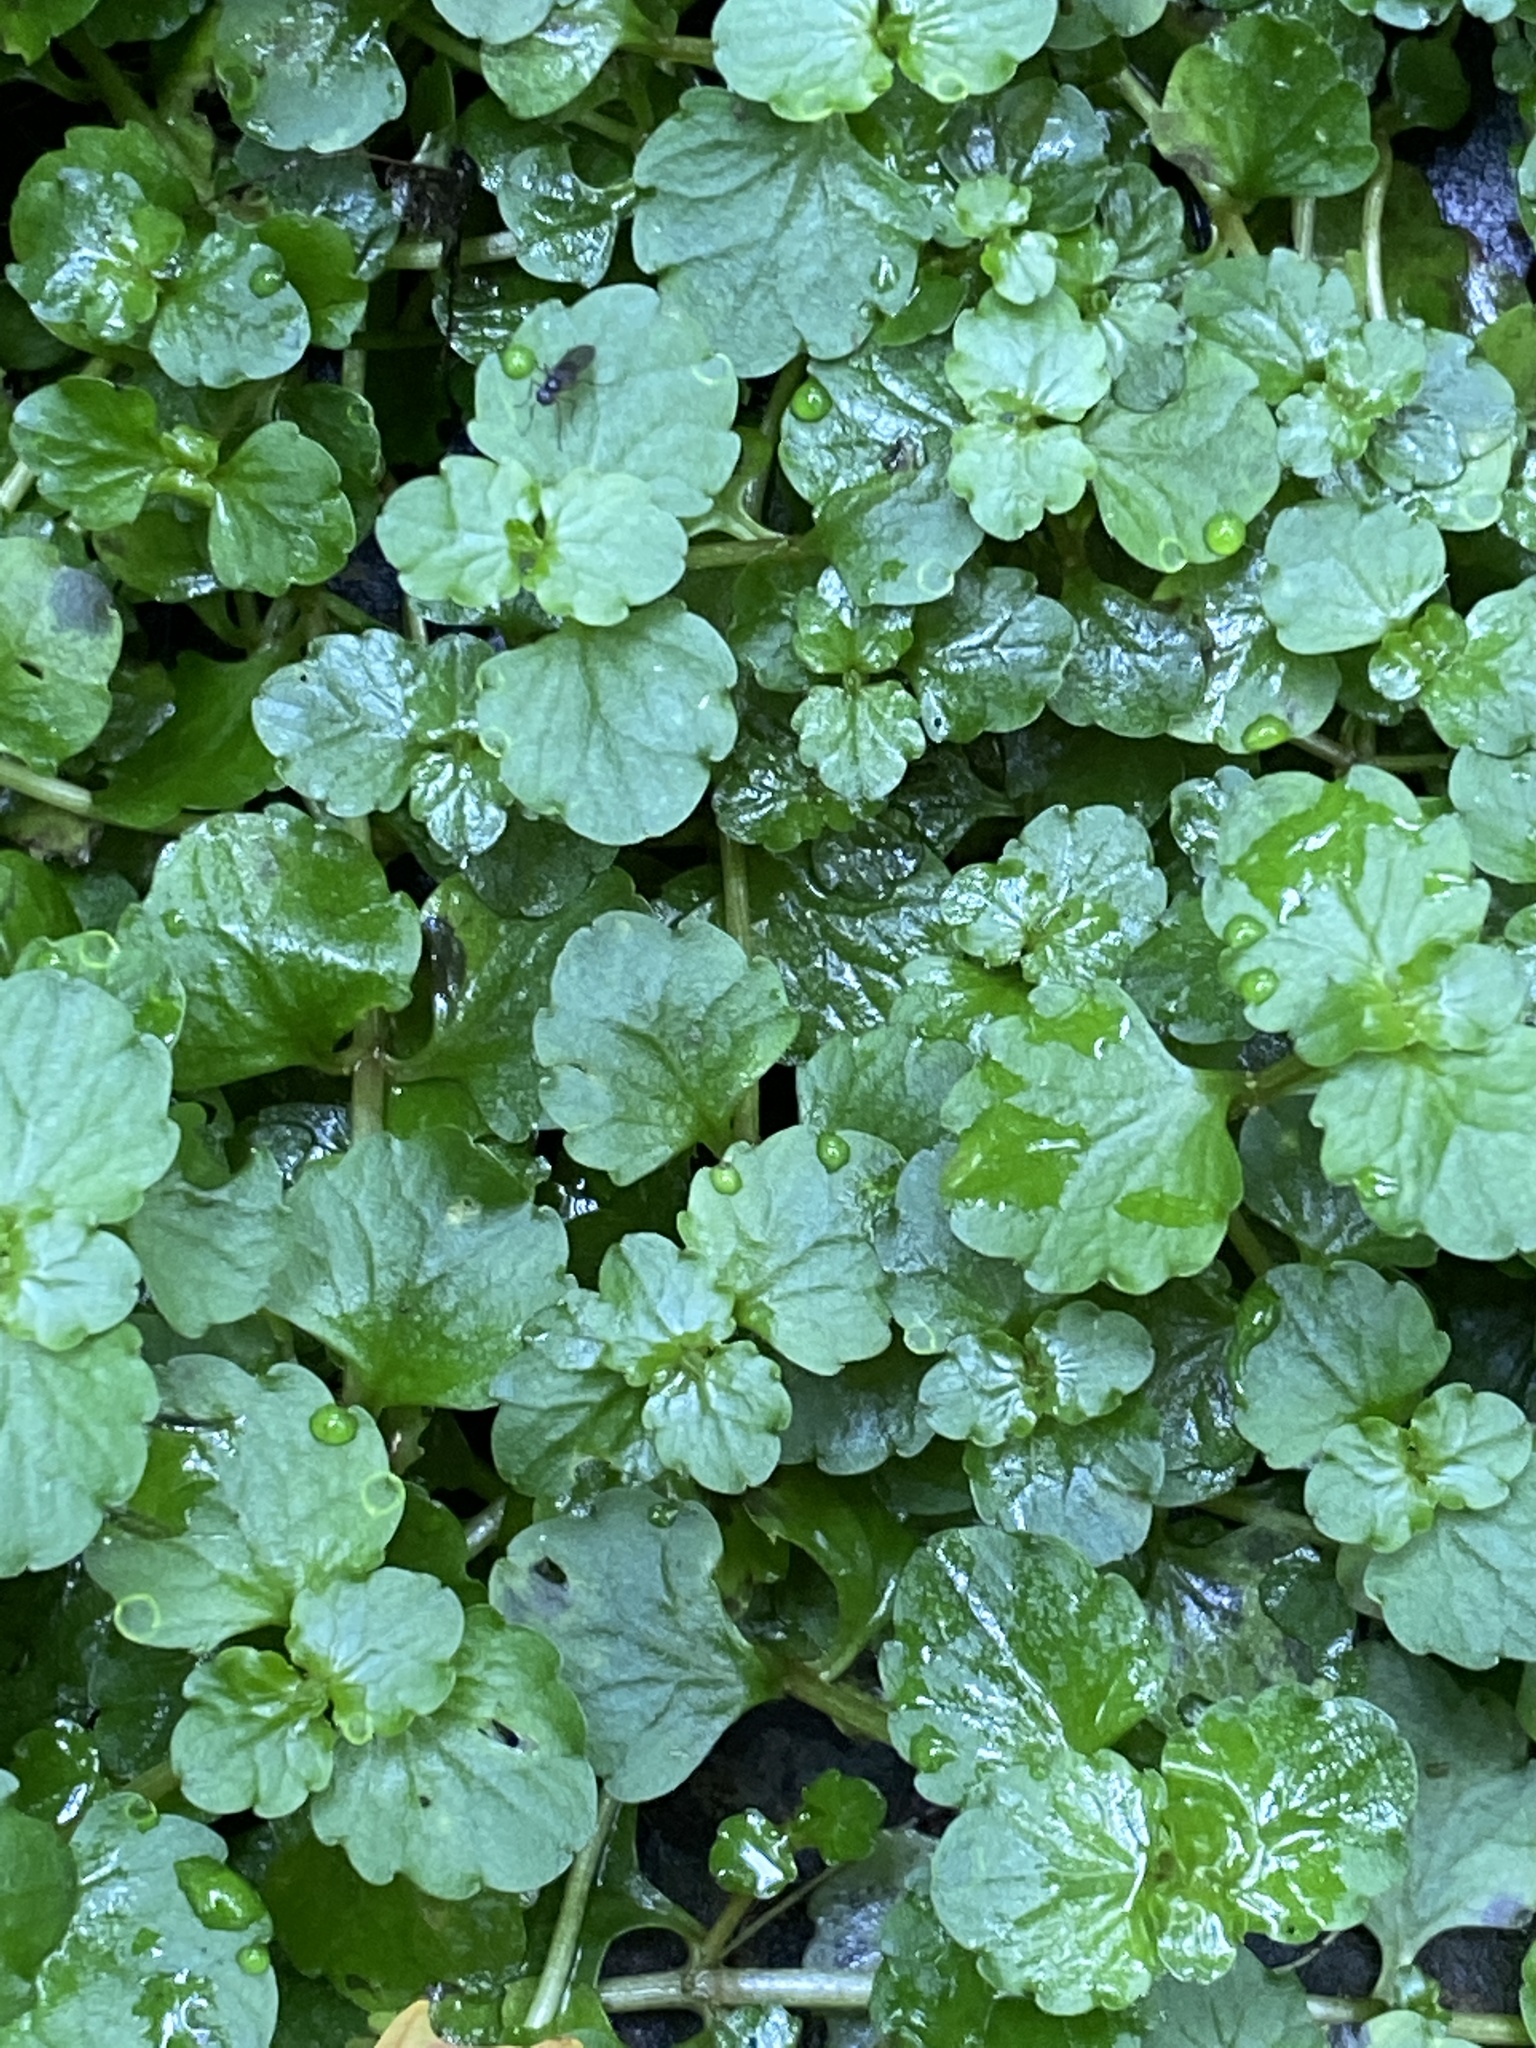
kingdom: Plantae
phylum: Tracheophyta
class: Magnoliopsida
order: Saxifragales
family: Saxifragaceae
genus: Chrysosplenium
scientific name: Chrysosplenium americanum
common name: American golden-saxifrage
